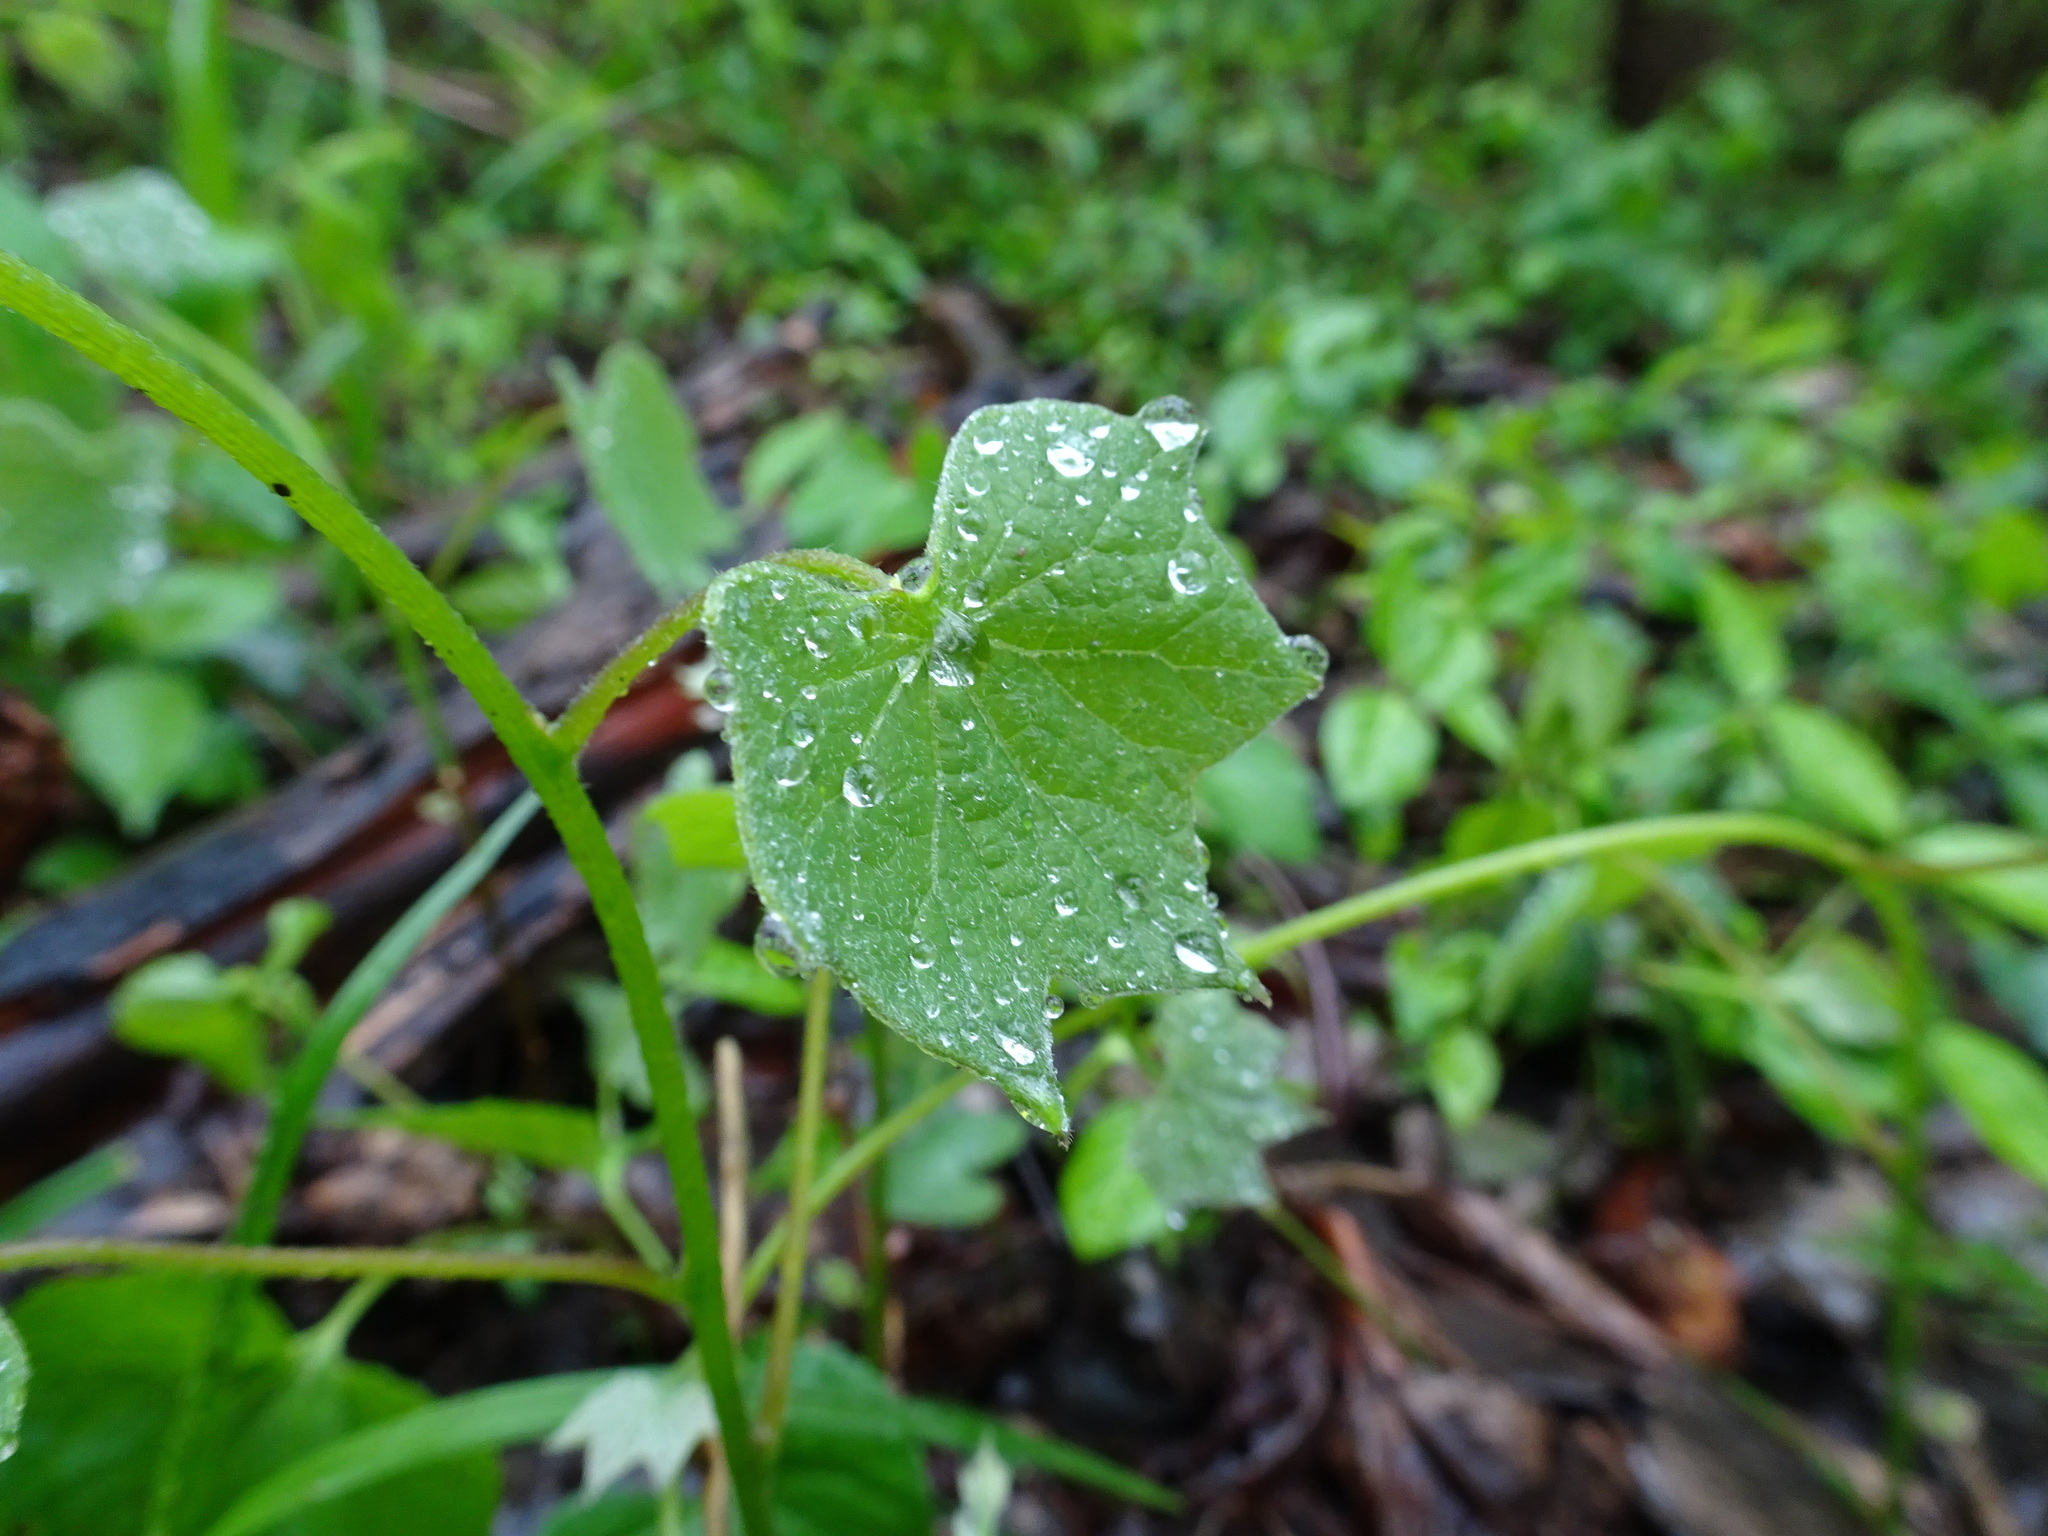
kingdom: Plantae
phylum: Tracheophyta
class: Magnoliopsida
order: Ranunculales
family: Menispermaceae
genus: Menispermum
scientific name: Menispermum canadense
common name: Moonseed
